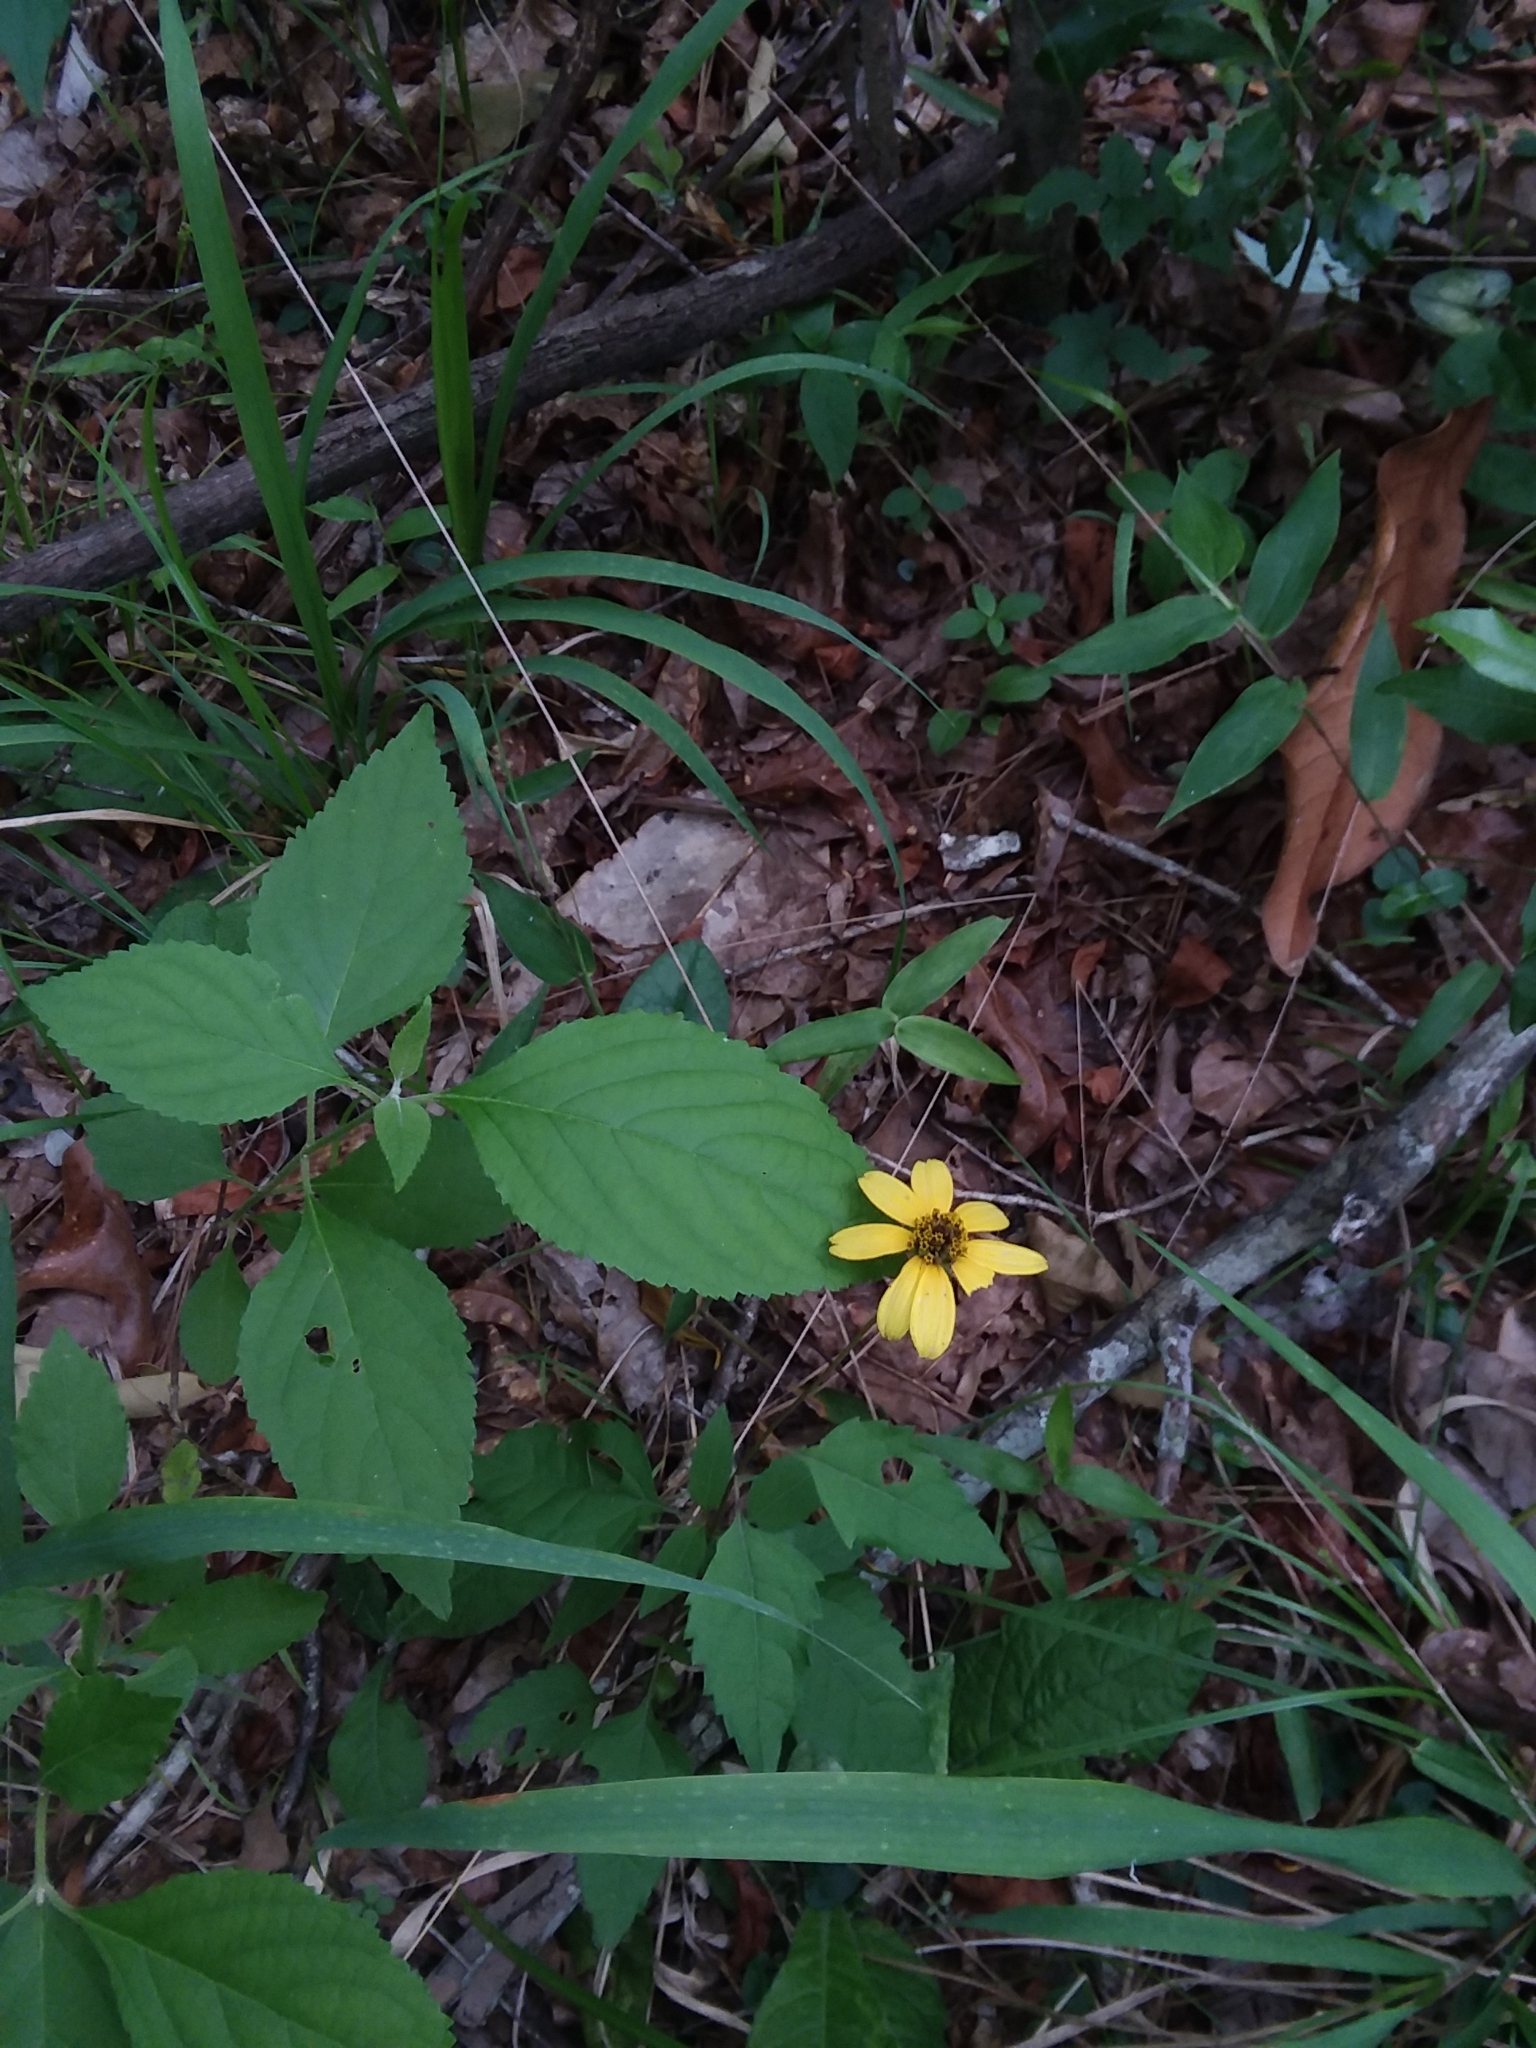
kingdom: Plantae
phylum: Tracheophyta
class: Magnoliopsida
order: Asterales
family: Asteraceae
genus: Heliopsis
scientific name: Heliopsis gracilis
